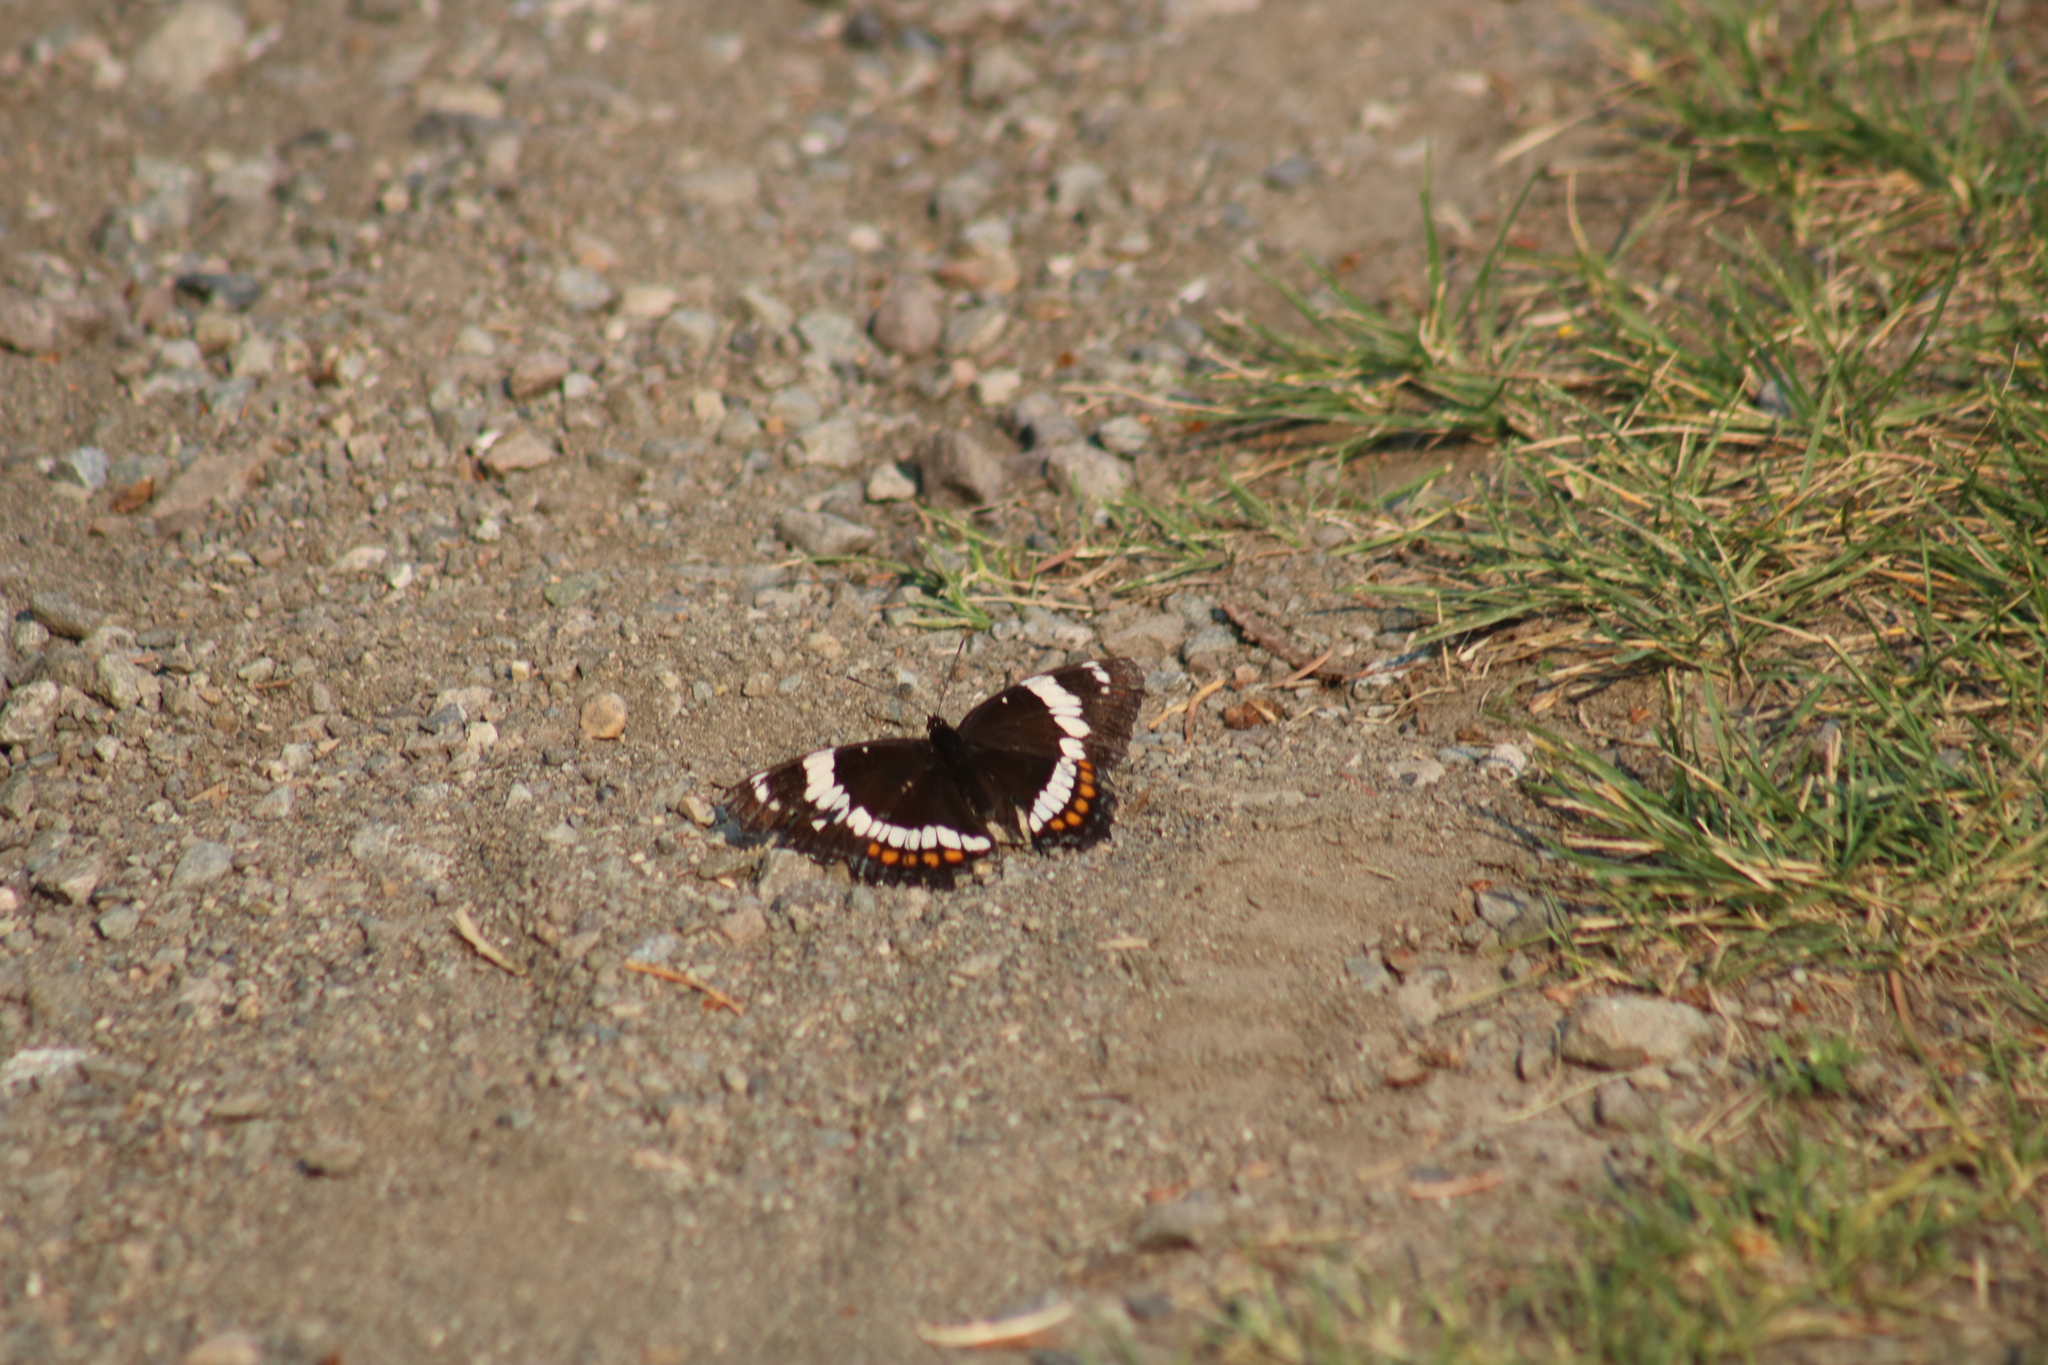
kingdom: Animalia
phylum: Arthropoda
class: Insecta
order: Lepidoptera
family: Nymphalidae
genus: Limenitis
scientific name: Limenitis arthemis
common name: Red-spotted admiral
